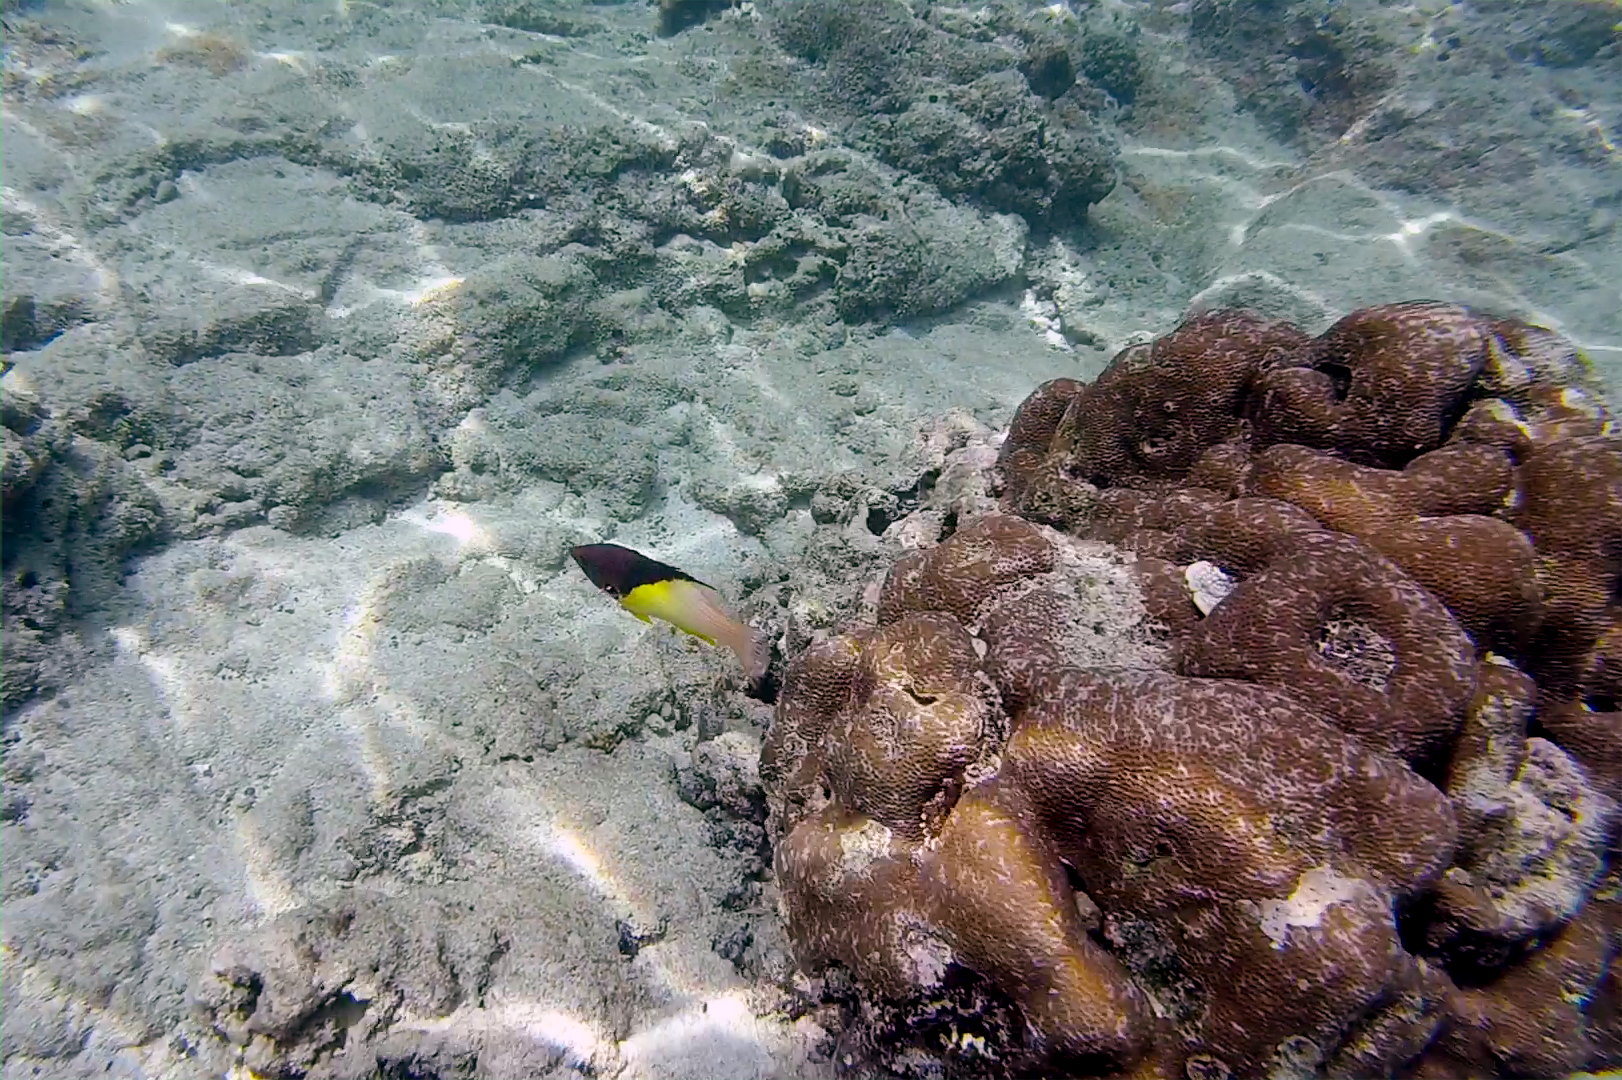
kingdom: Animalia
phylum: Chordata
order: Perciformes
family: Labridae
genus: Bodianus
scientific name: Bodianus mesothorax
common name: Coral hogfish
